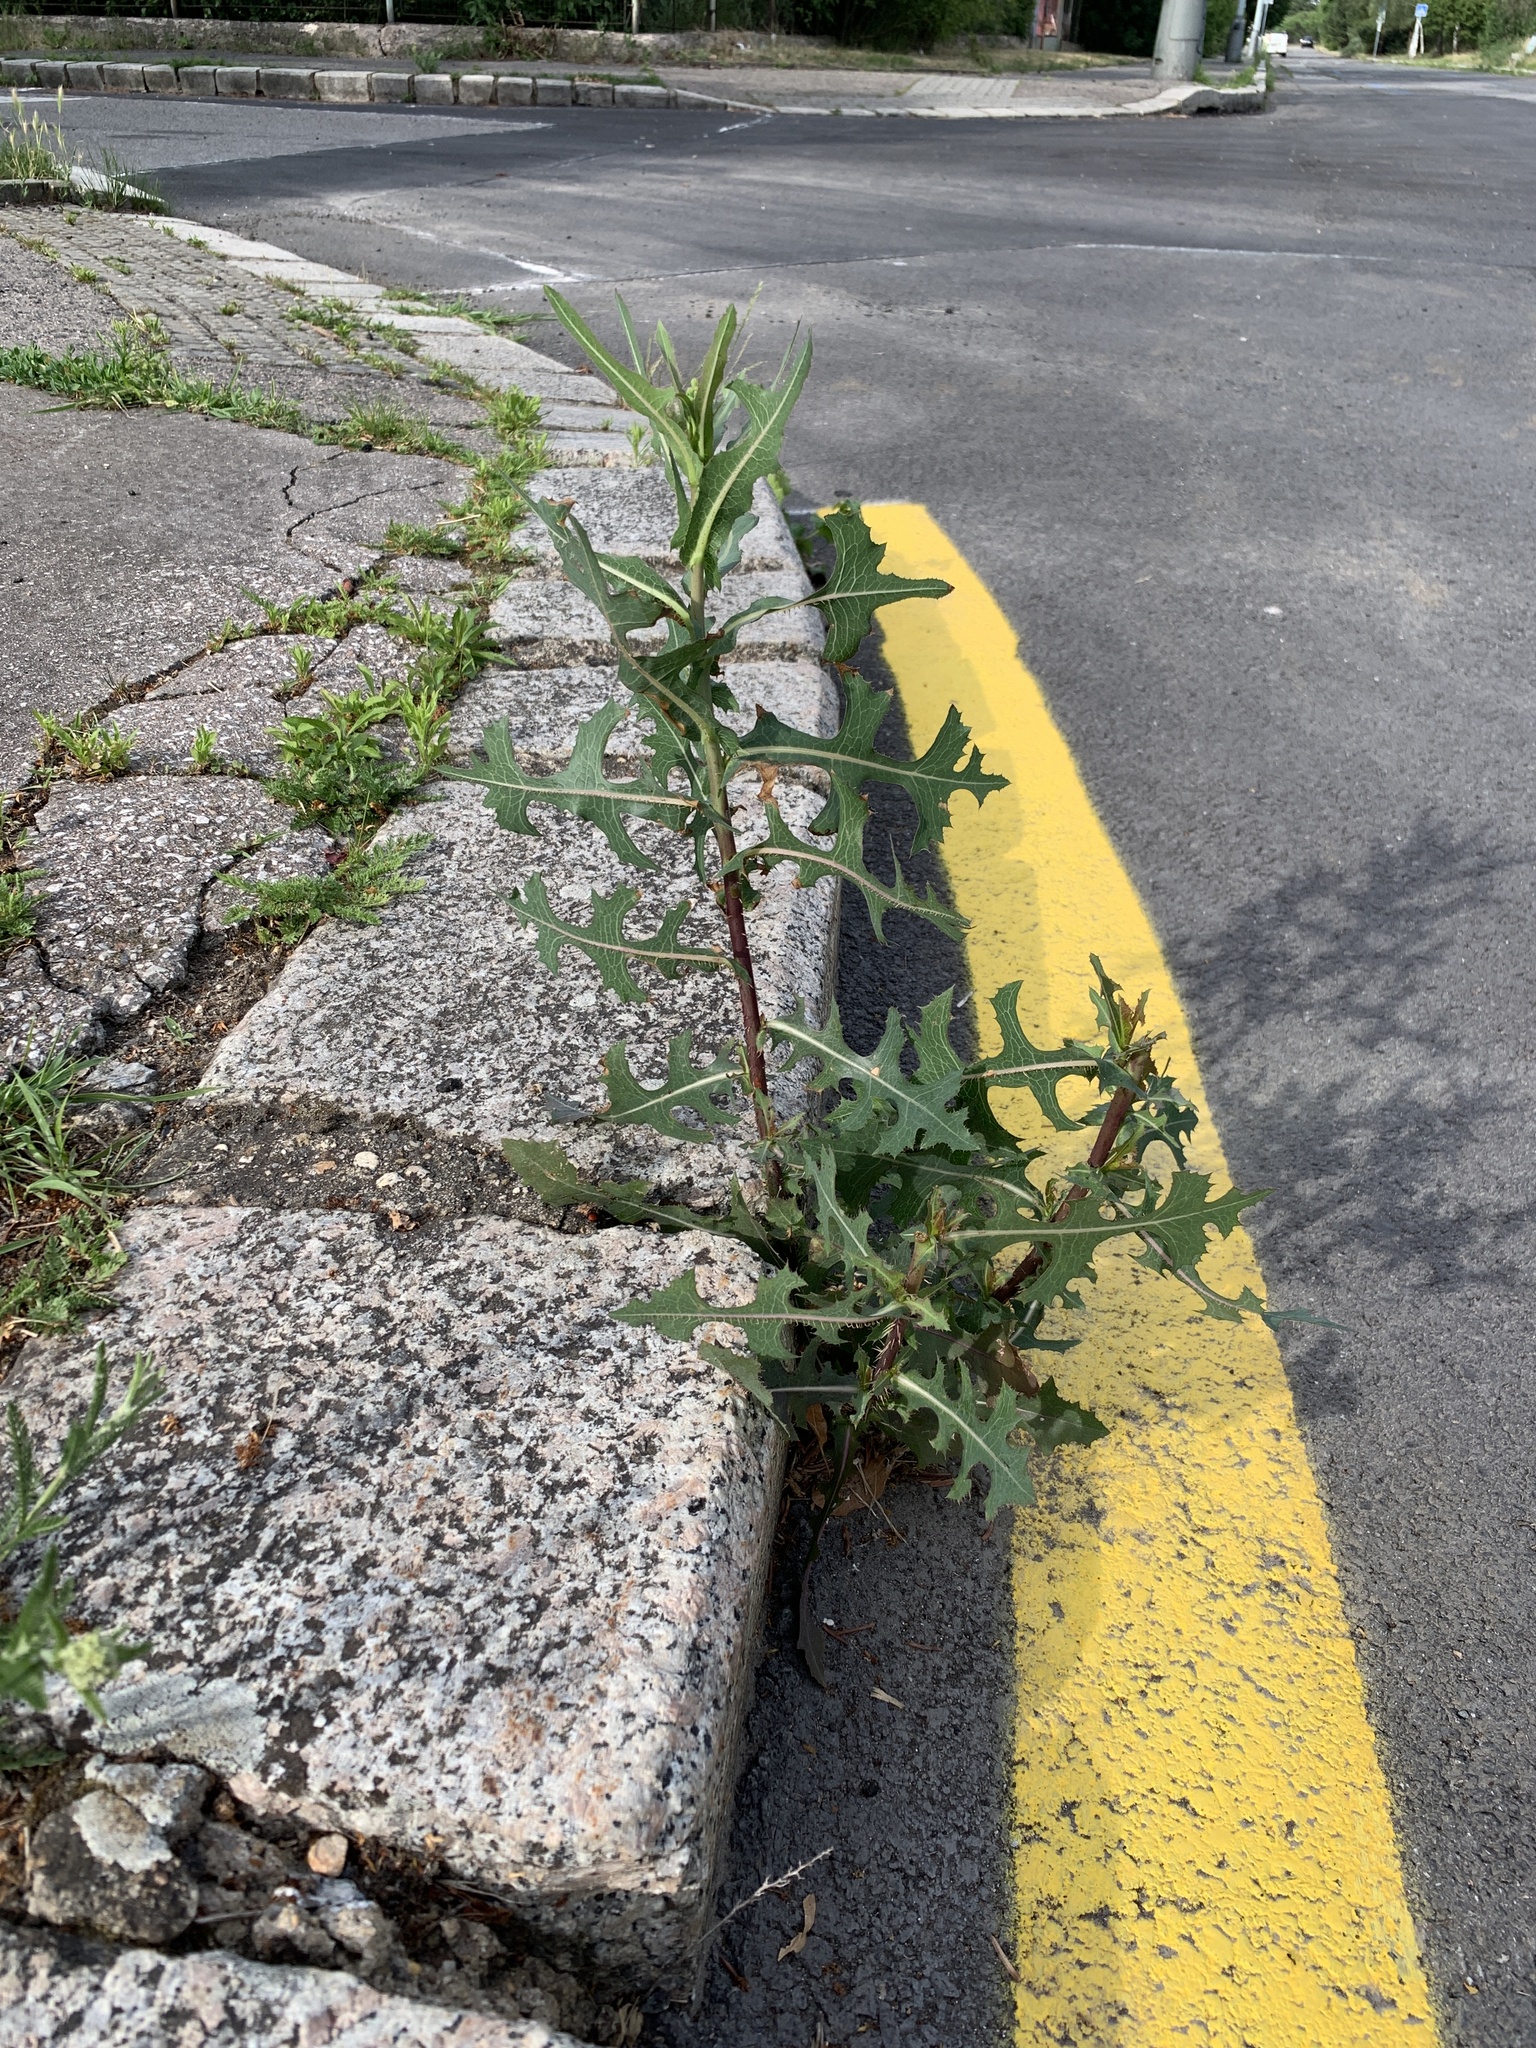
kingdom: Plantae
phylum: Tracheophyta
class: Magnoliopsida
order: Asterales
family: Asteraceae
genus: Lactuca
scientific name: Lactuca serriola
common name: Prickly lettuce
